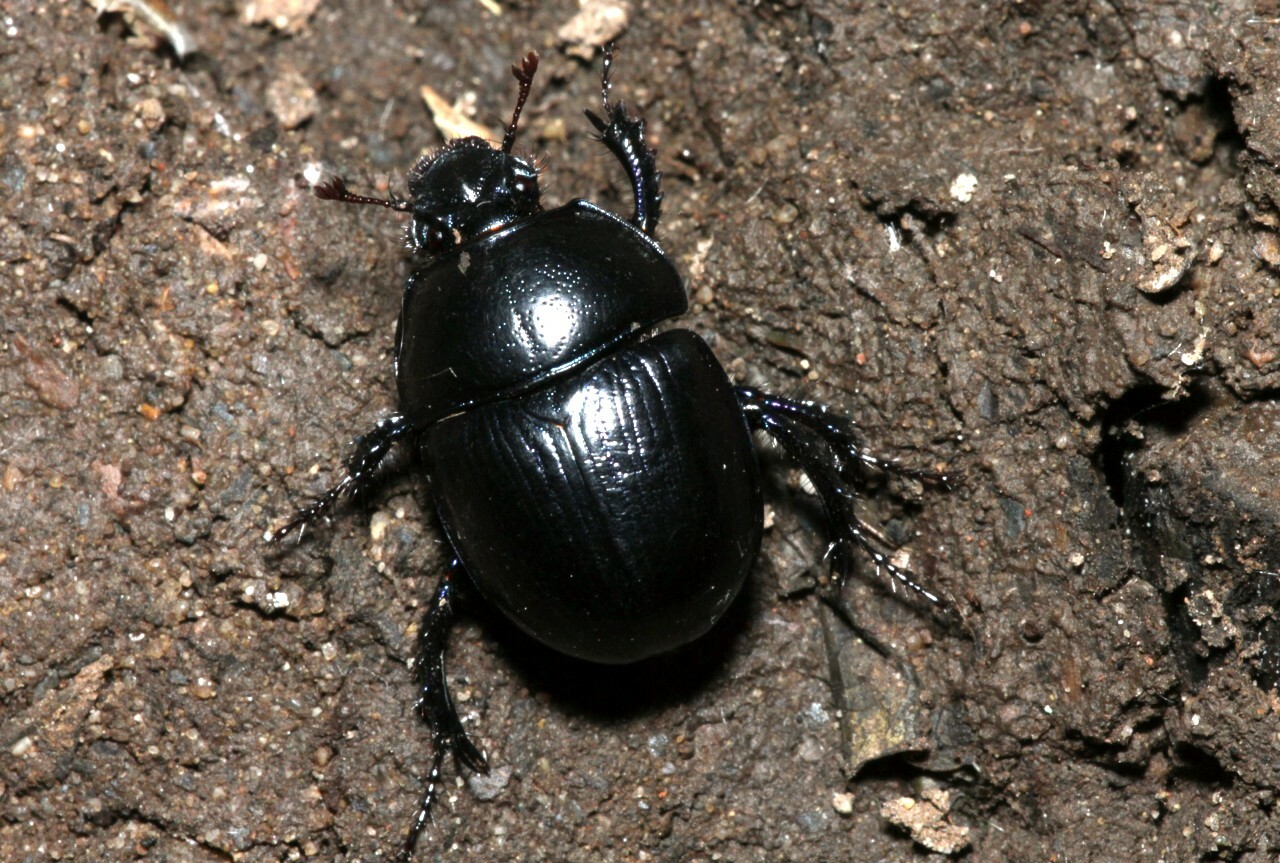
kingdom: Animalia
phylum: Arthropoda
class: Insecta
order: Coleoptera
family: Geotrupidae
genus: Anoplotrupes
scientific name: Anoplotrupes stercorosus
